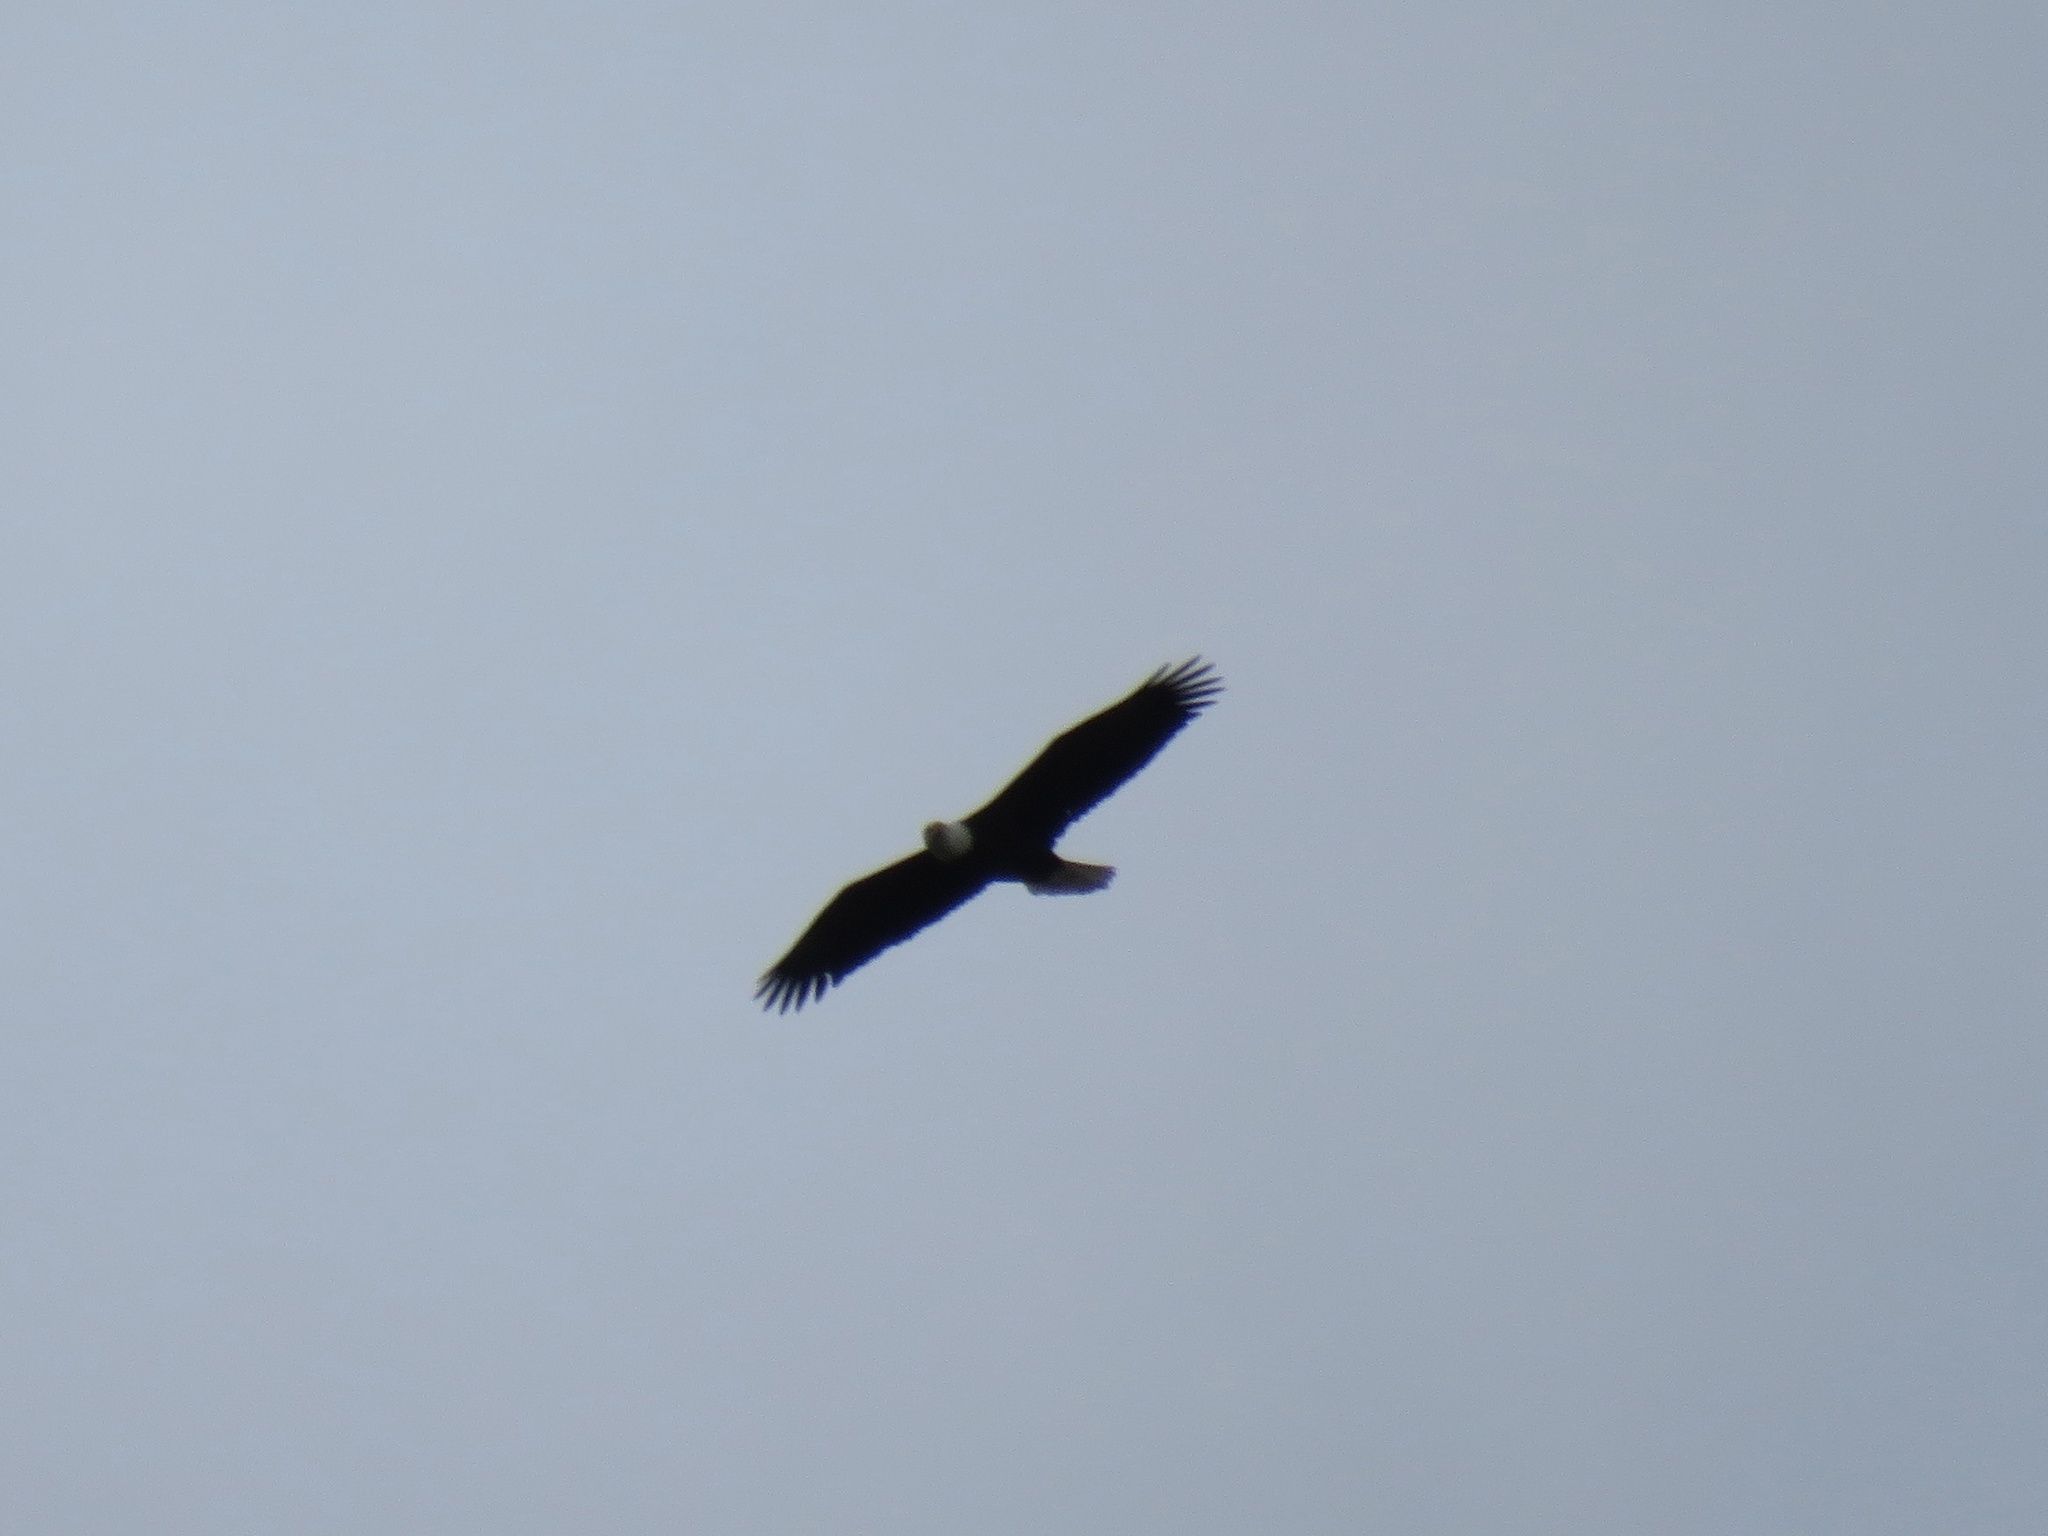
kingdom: Animalia
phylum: Chordata
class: Aves
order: Accipitriformes
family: Accipitridae
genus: Haliaeetus
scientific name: Haliaeetus leucocephalus
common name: Bald eagle
